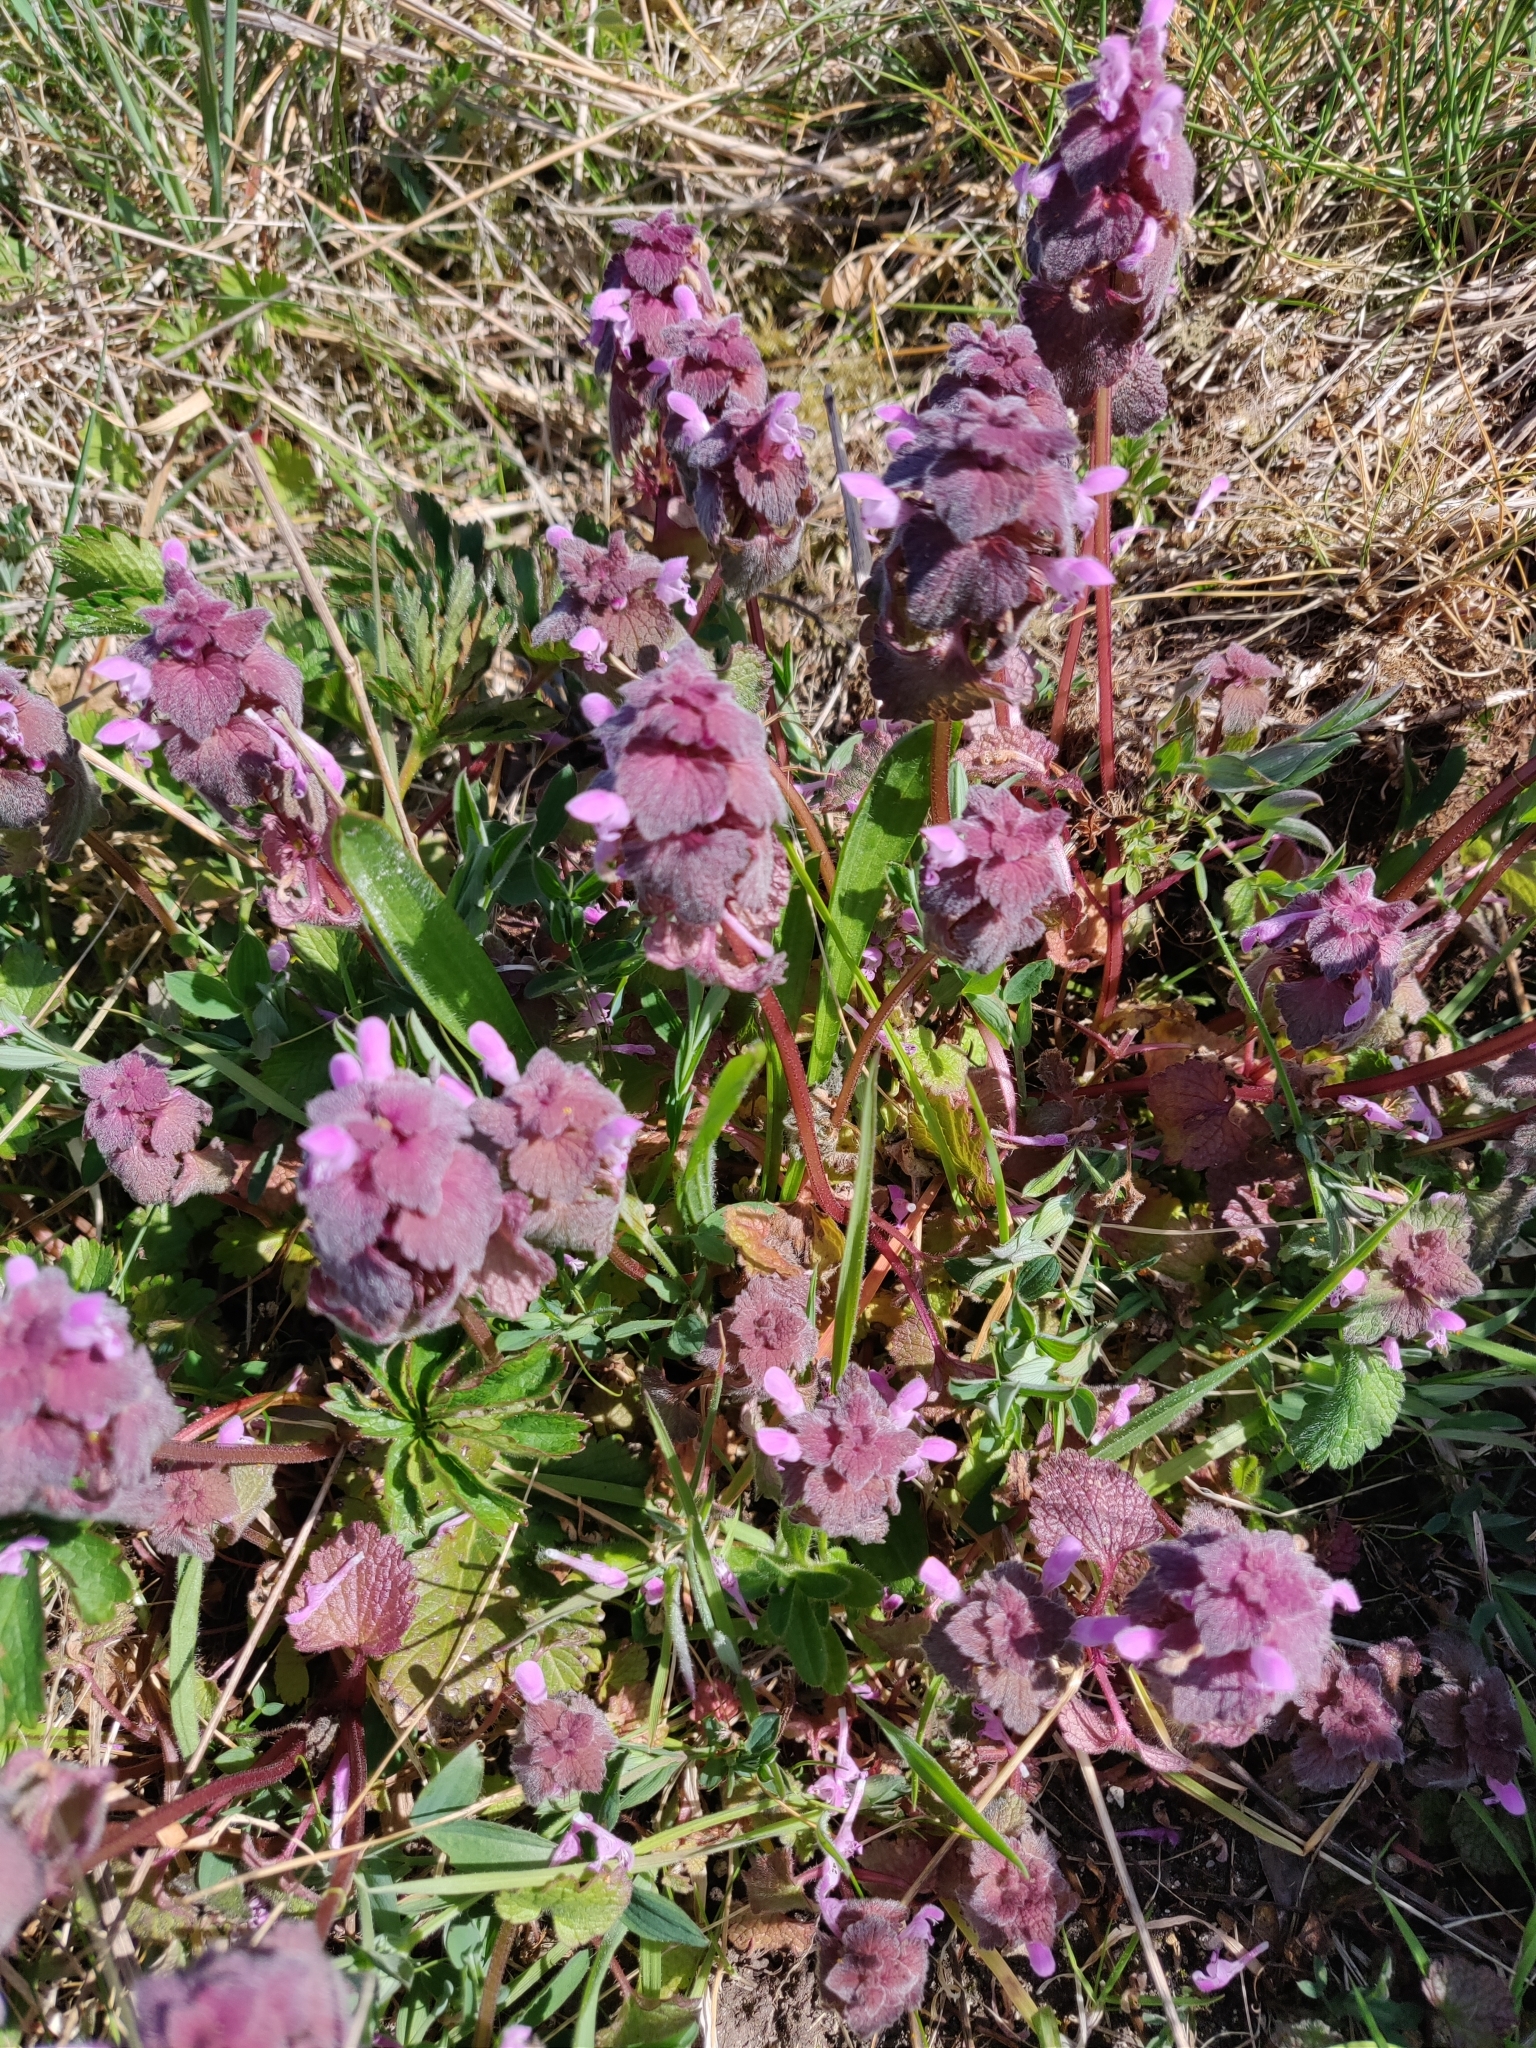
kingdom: Plantae
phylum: Tracheophyta
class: Magnoliopsida
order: Lamiales
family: Lamiaceae
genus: Lamium
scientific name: Lamium purpureum
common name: Red dead-nettle
